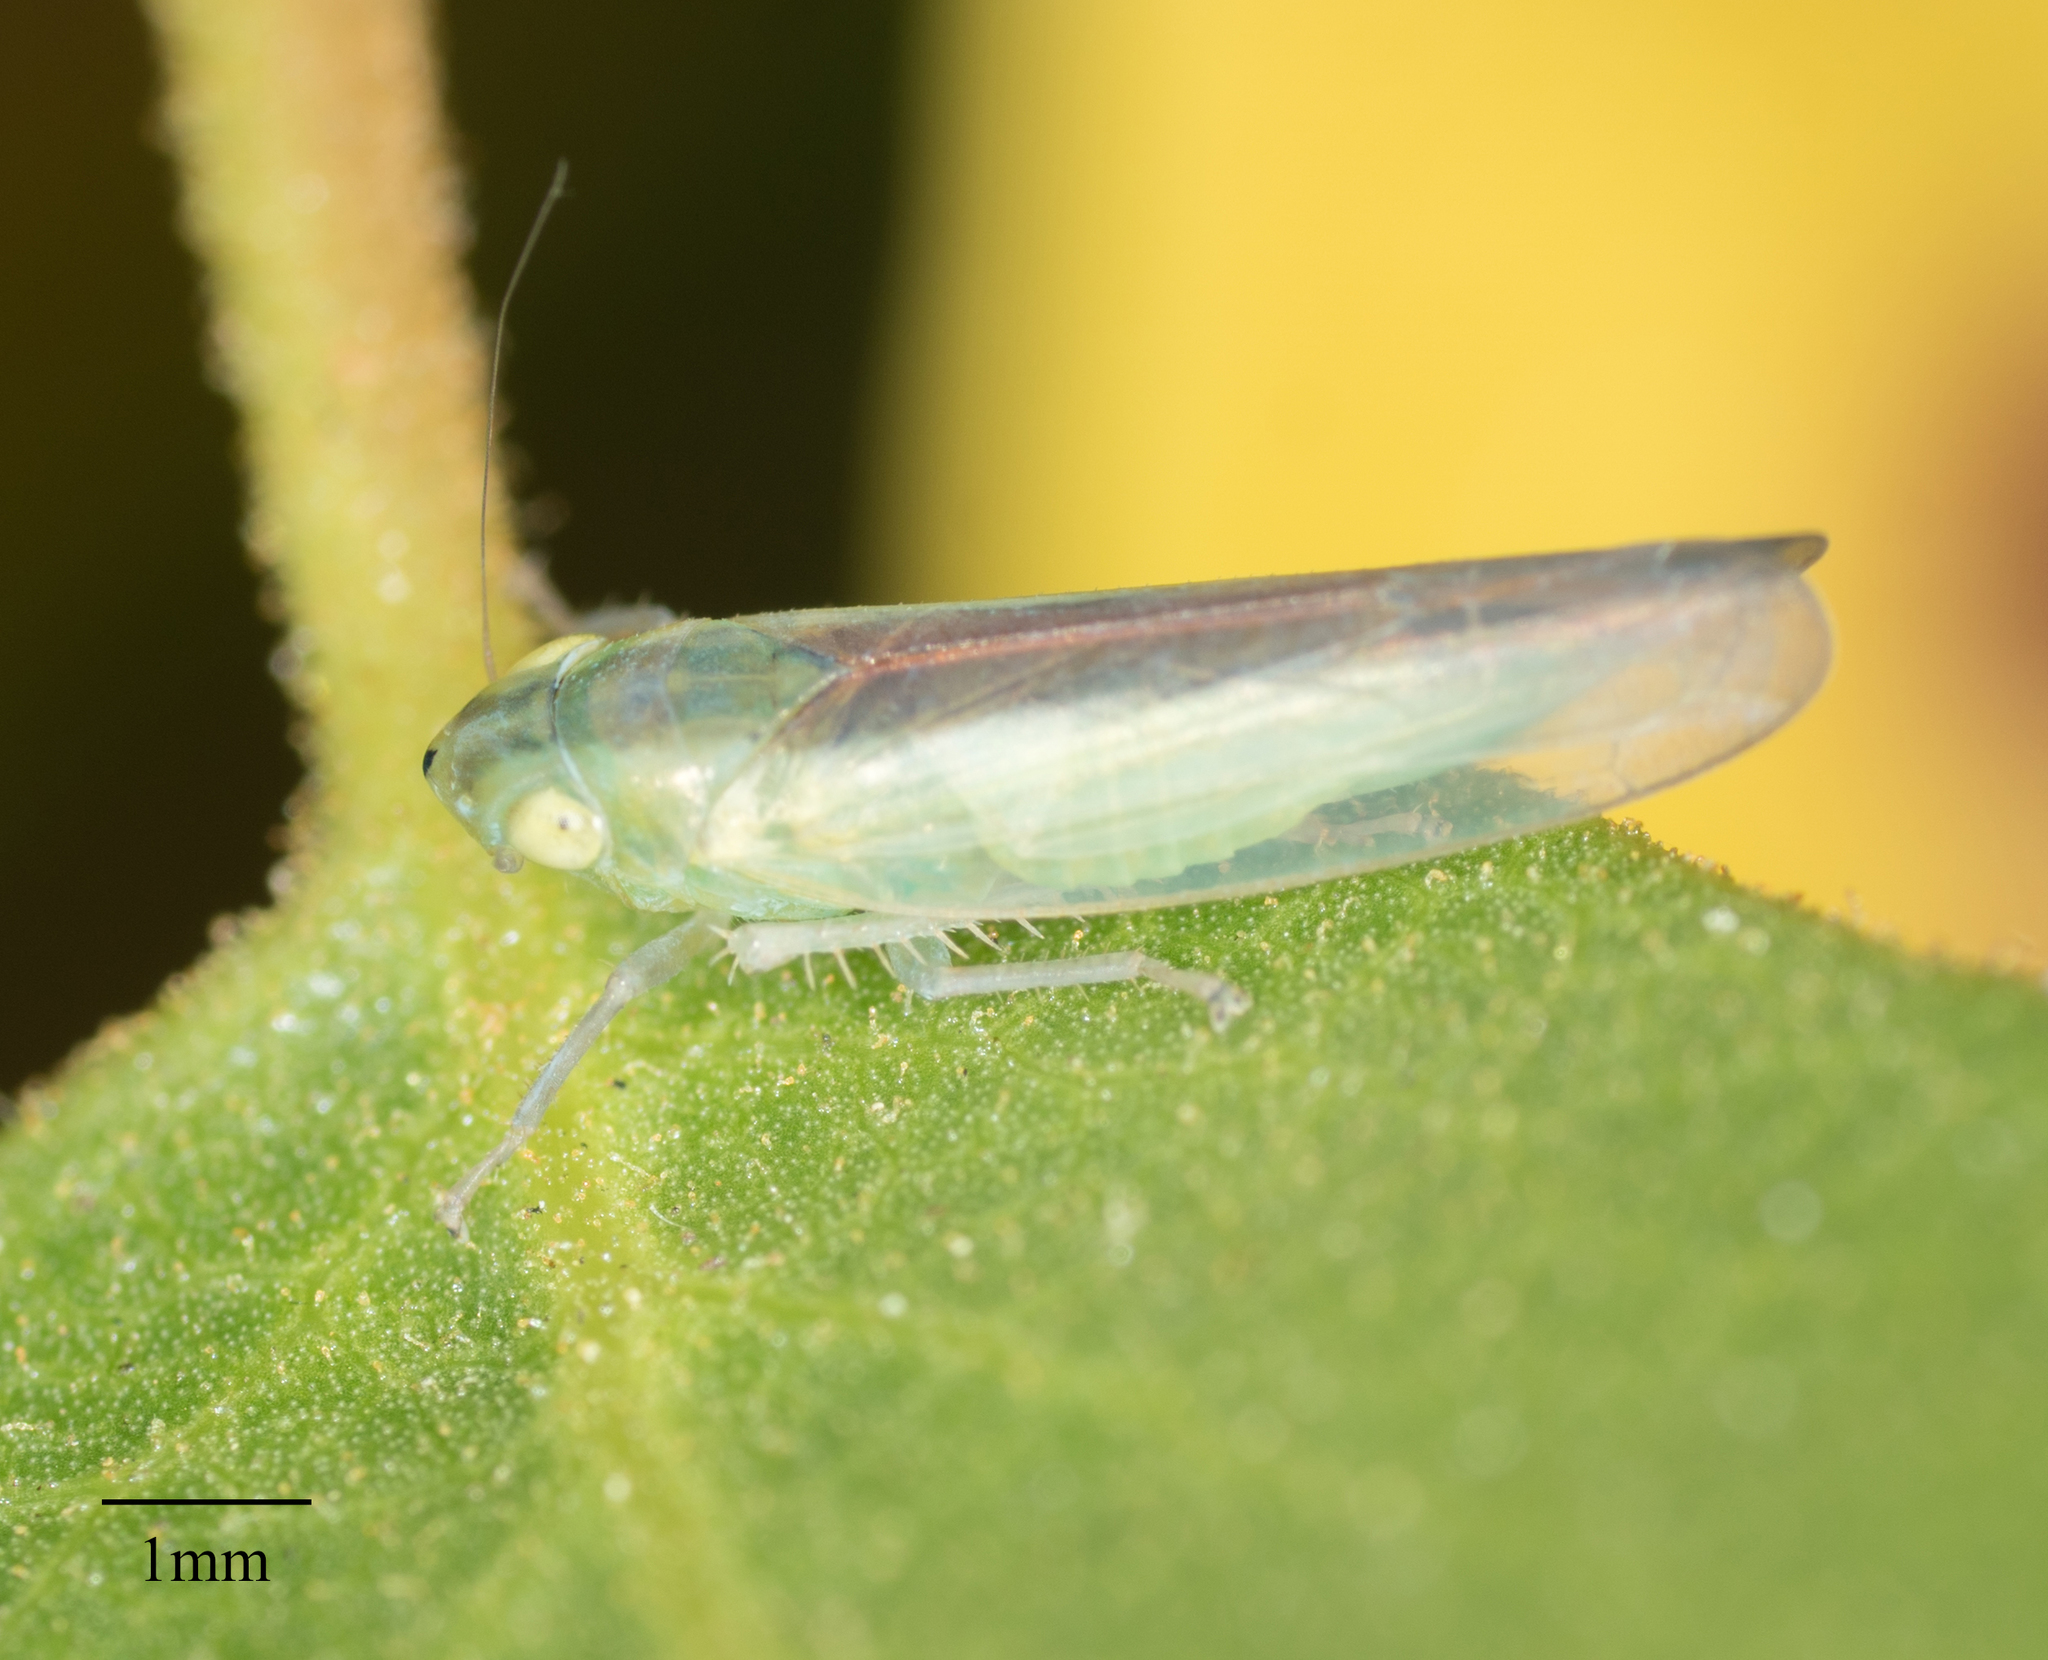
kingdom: Animalia
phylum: Arthropoda
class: Insecta
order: Hemiptera
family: Cicadellidae
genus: Neocoelidia
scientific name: Neocoelidia fuscovittata
